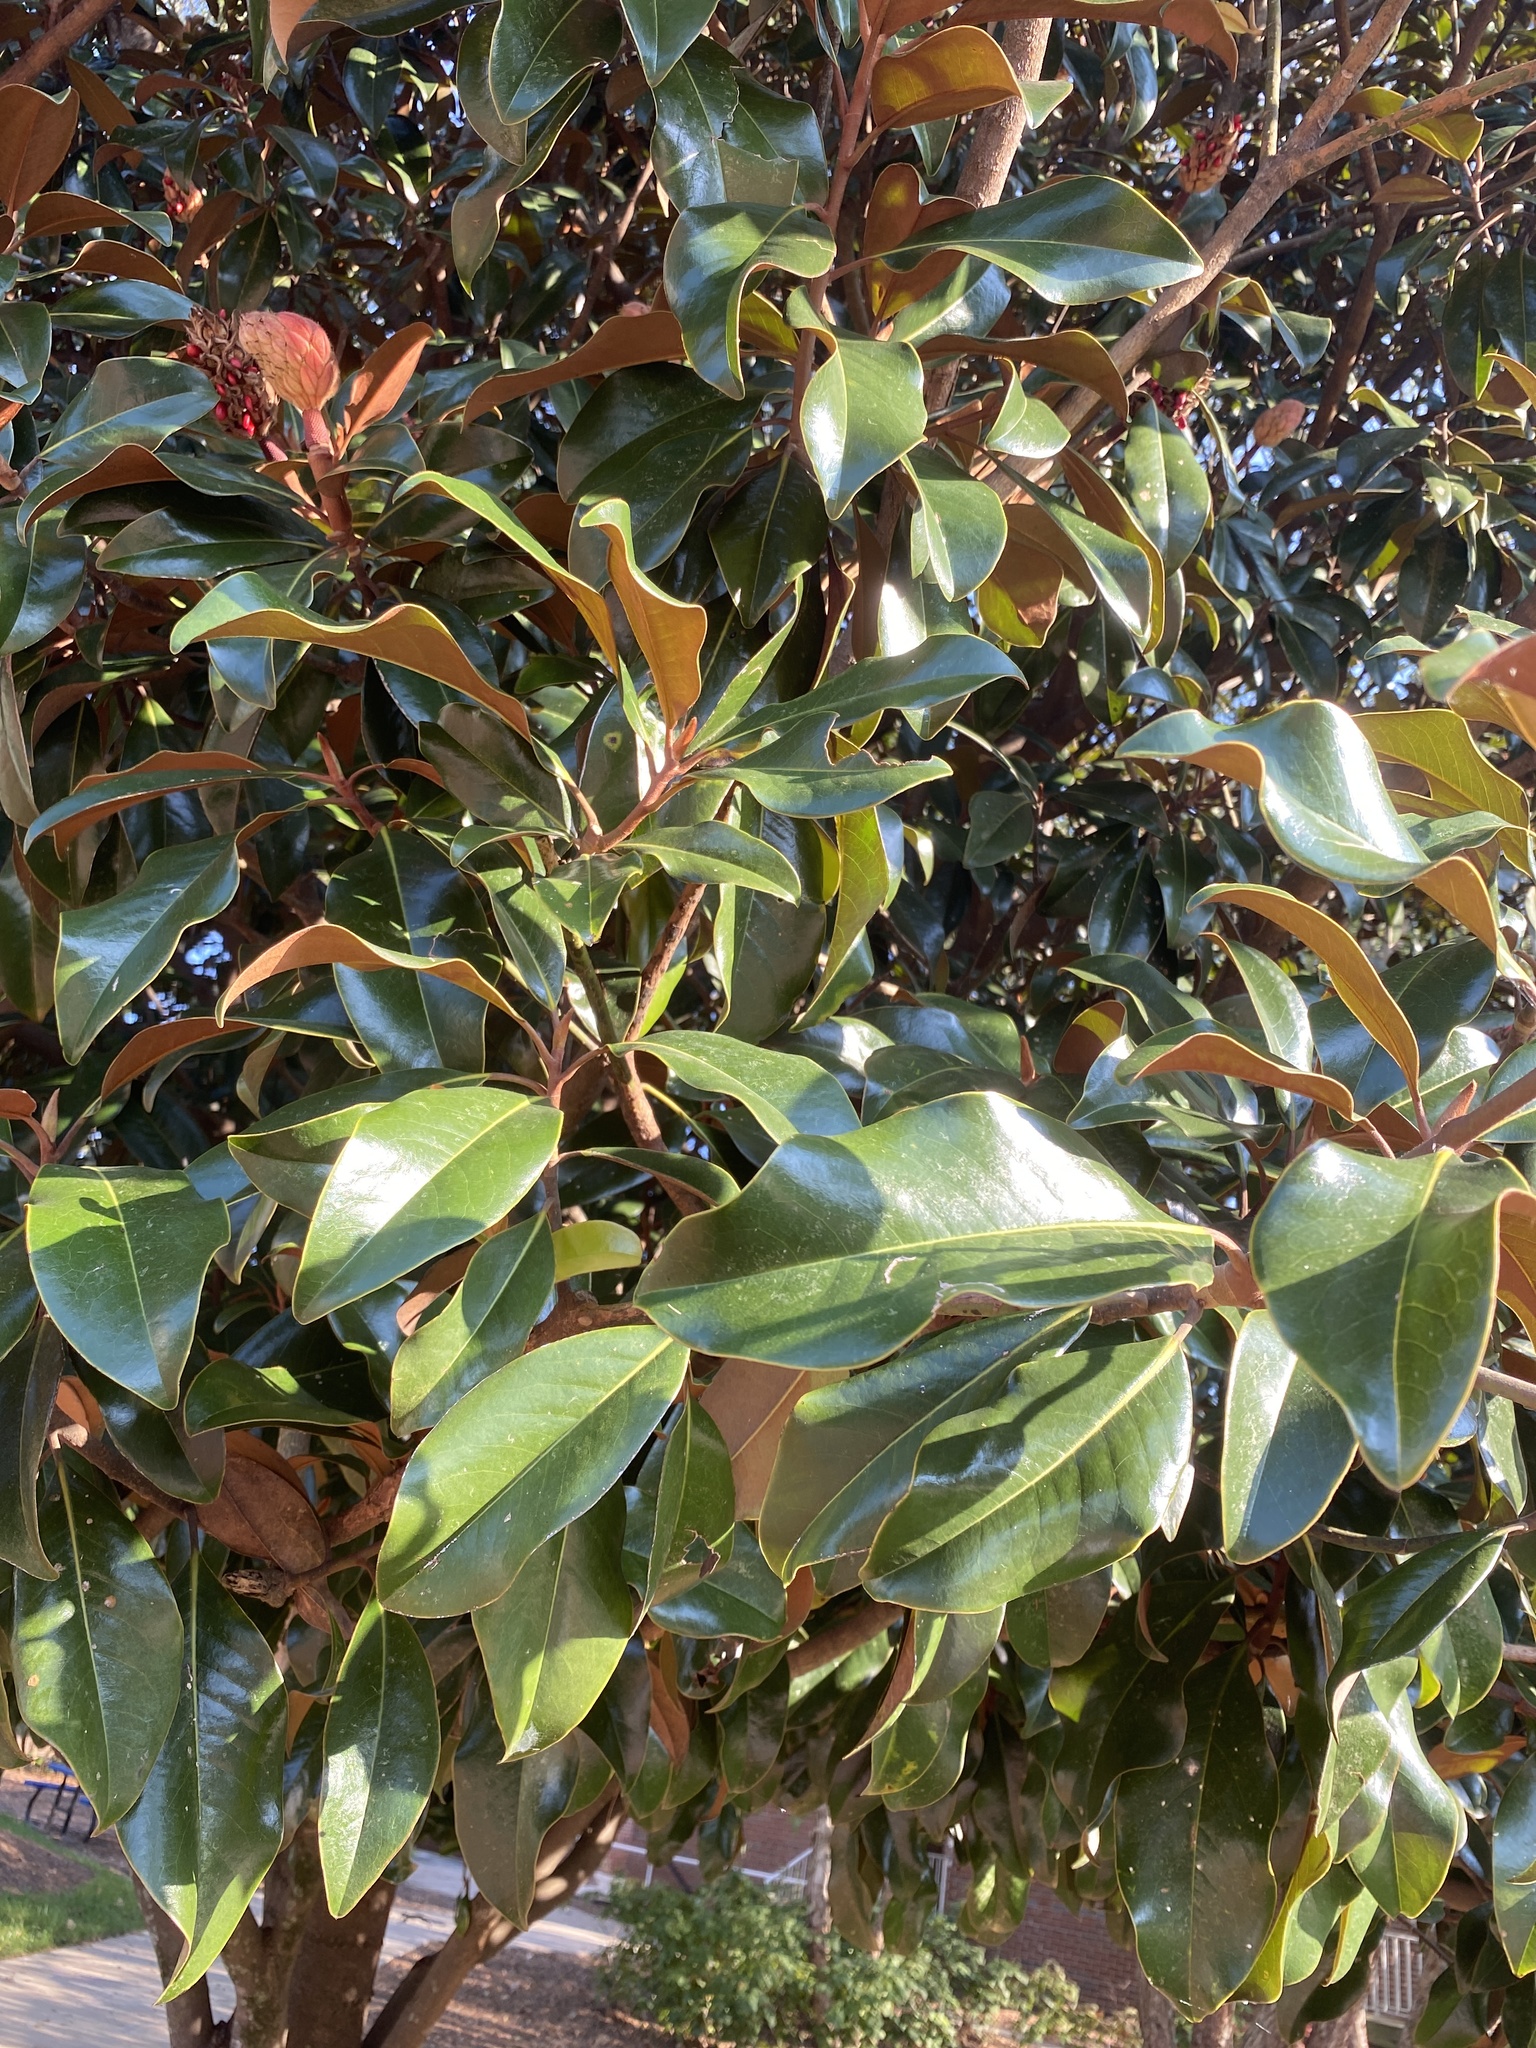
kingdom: Plantae
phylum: Tracheophyta
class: Magnoliopsida
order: Magnoliales
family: Magnoliaceae
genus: Magnolia
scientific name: Magnolia grandiflora
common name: Southern magnolia
